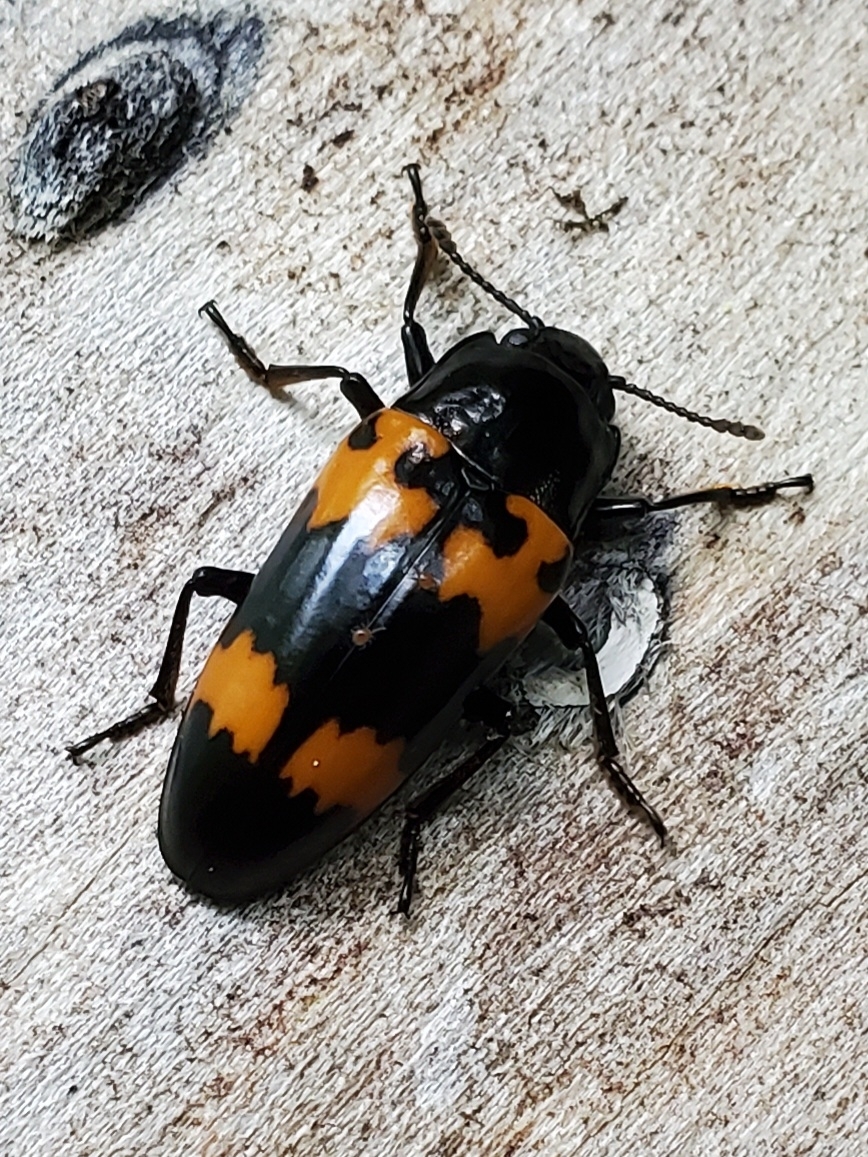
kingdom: Animalia
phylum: Arthropoda
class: Insecta
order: Coleoptera
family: Erotylidae
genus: Megalodacne
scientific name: Megalodacne heros
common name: Pleasing fungus beetle
